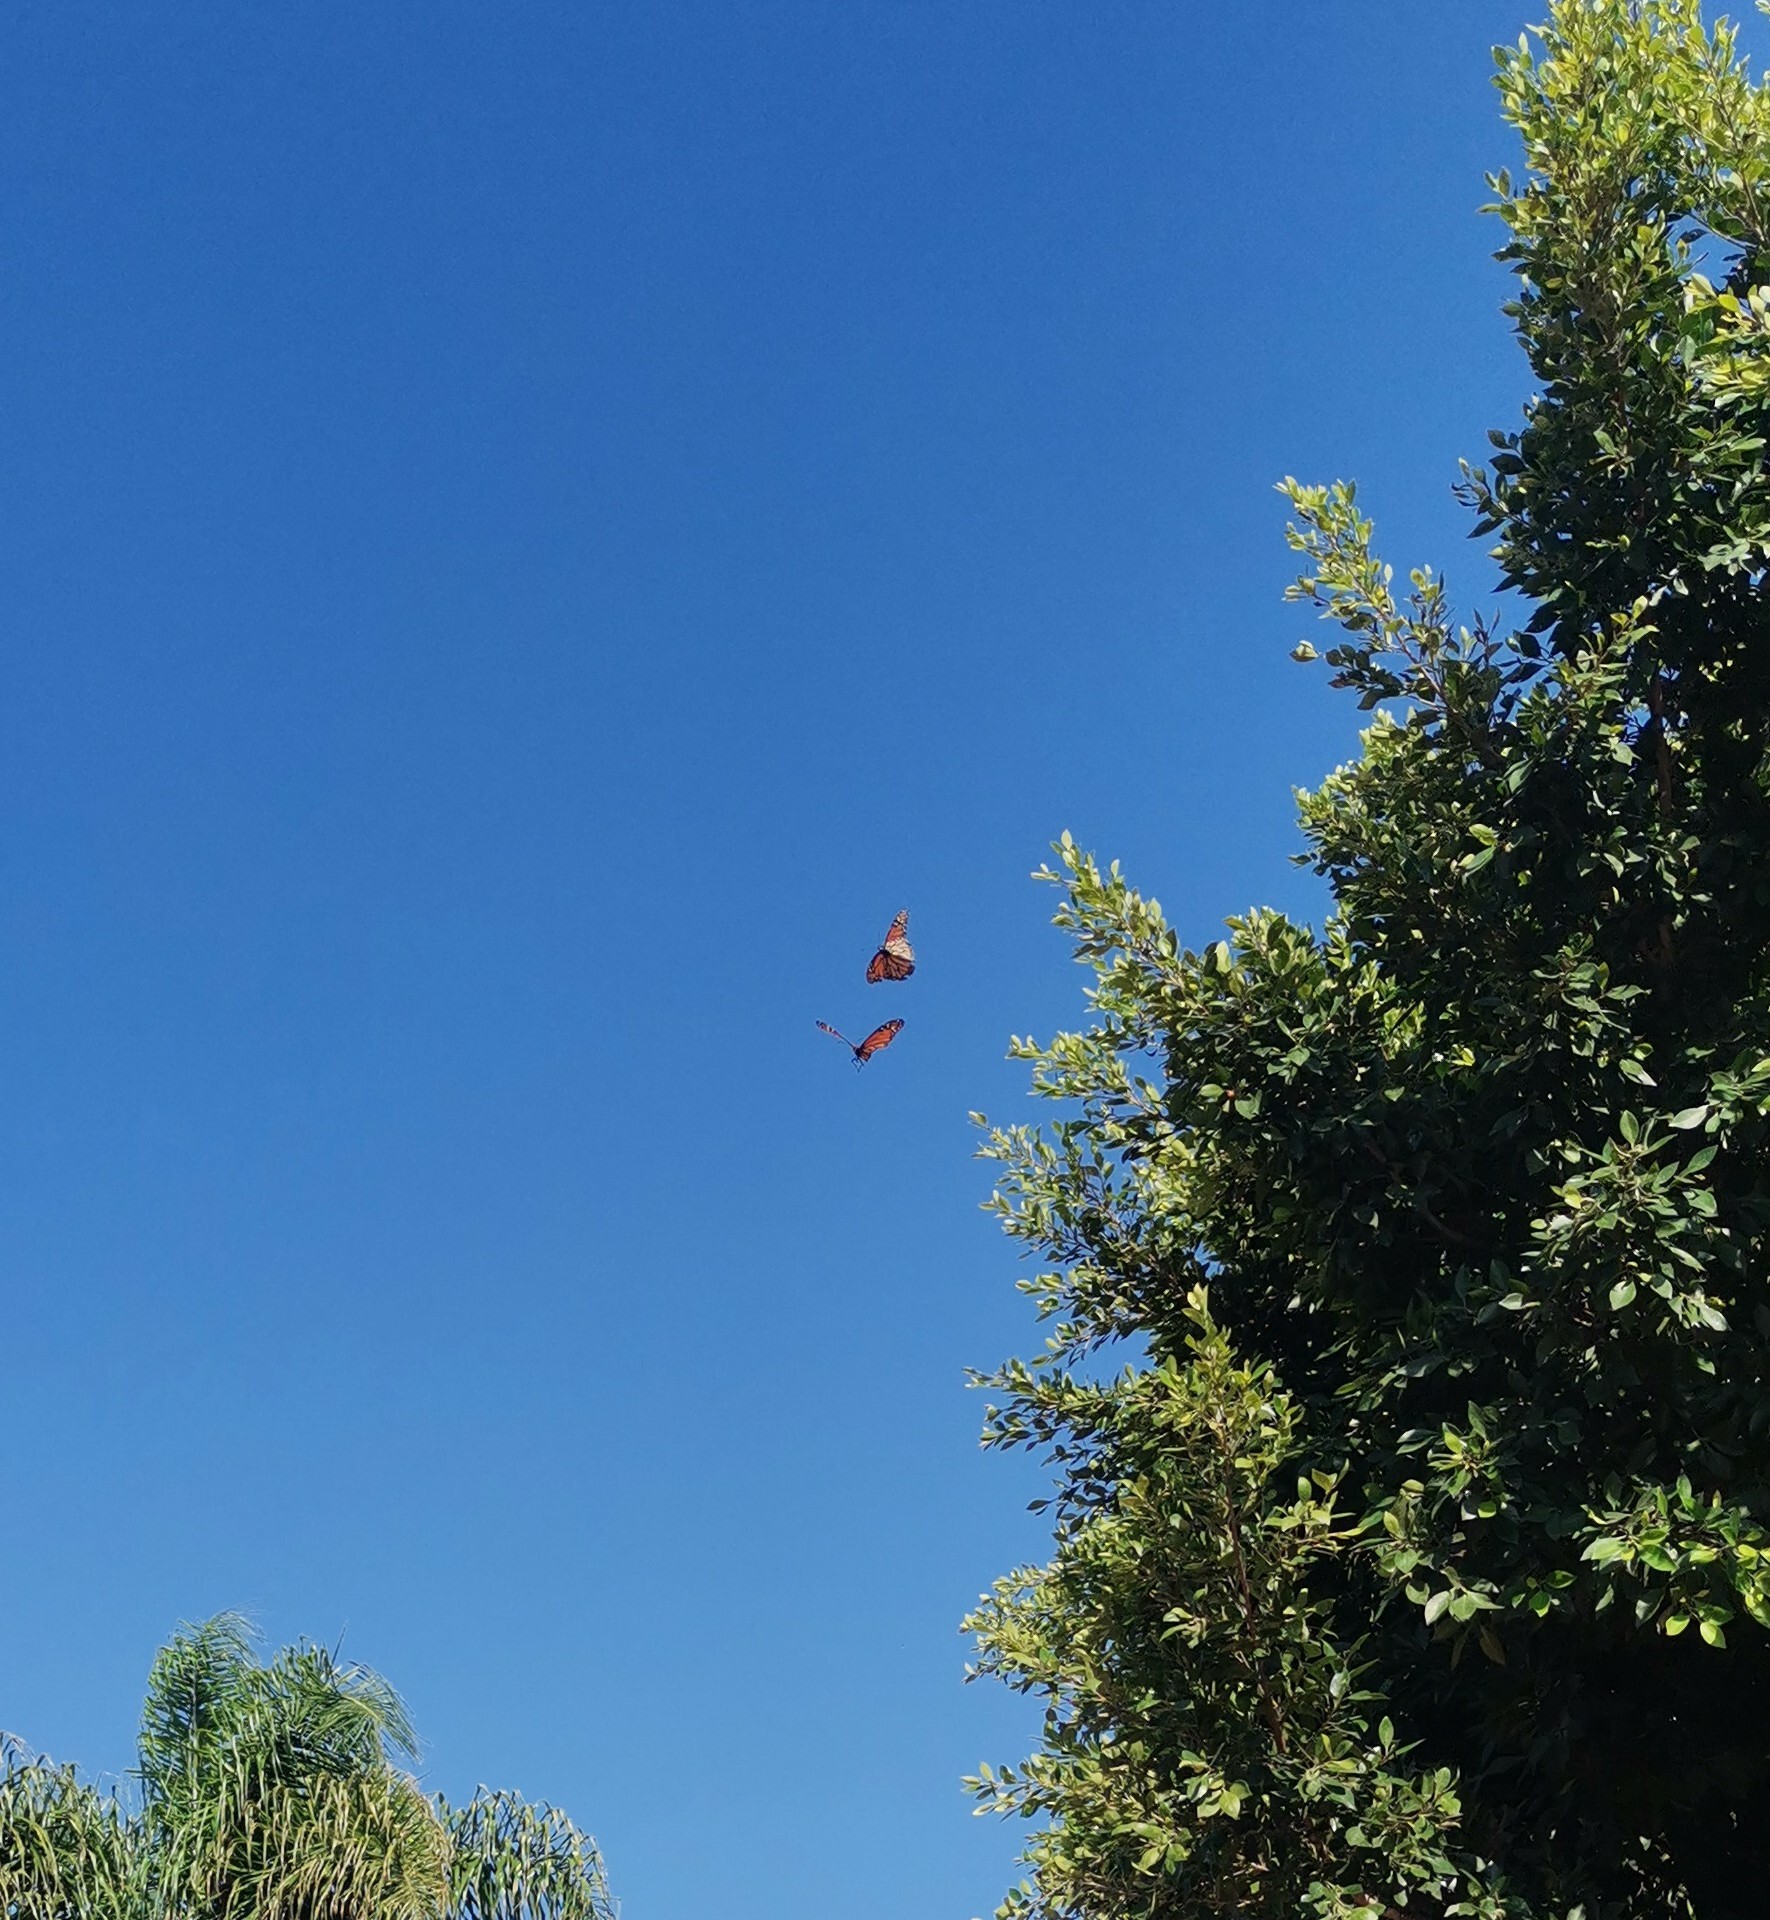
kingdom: Animalia
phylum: Arthropoda
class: Insecta
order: Lepidoptera
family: Nymphalidae
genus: Danaus
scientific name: Danaus plexippus
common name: Monarch
